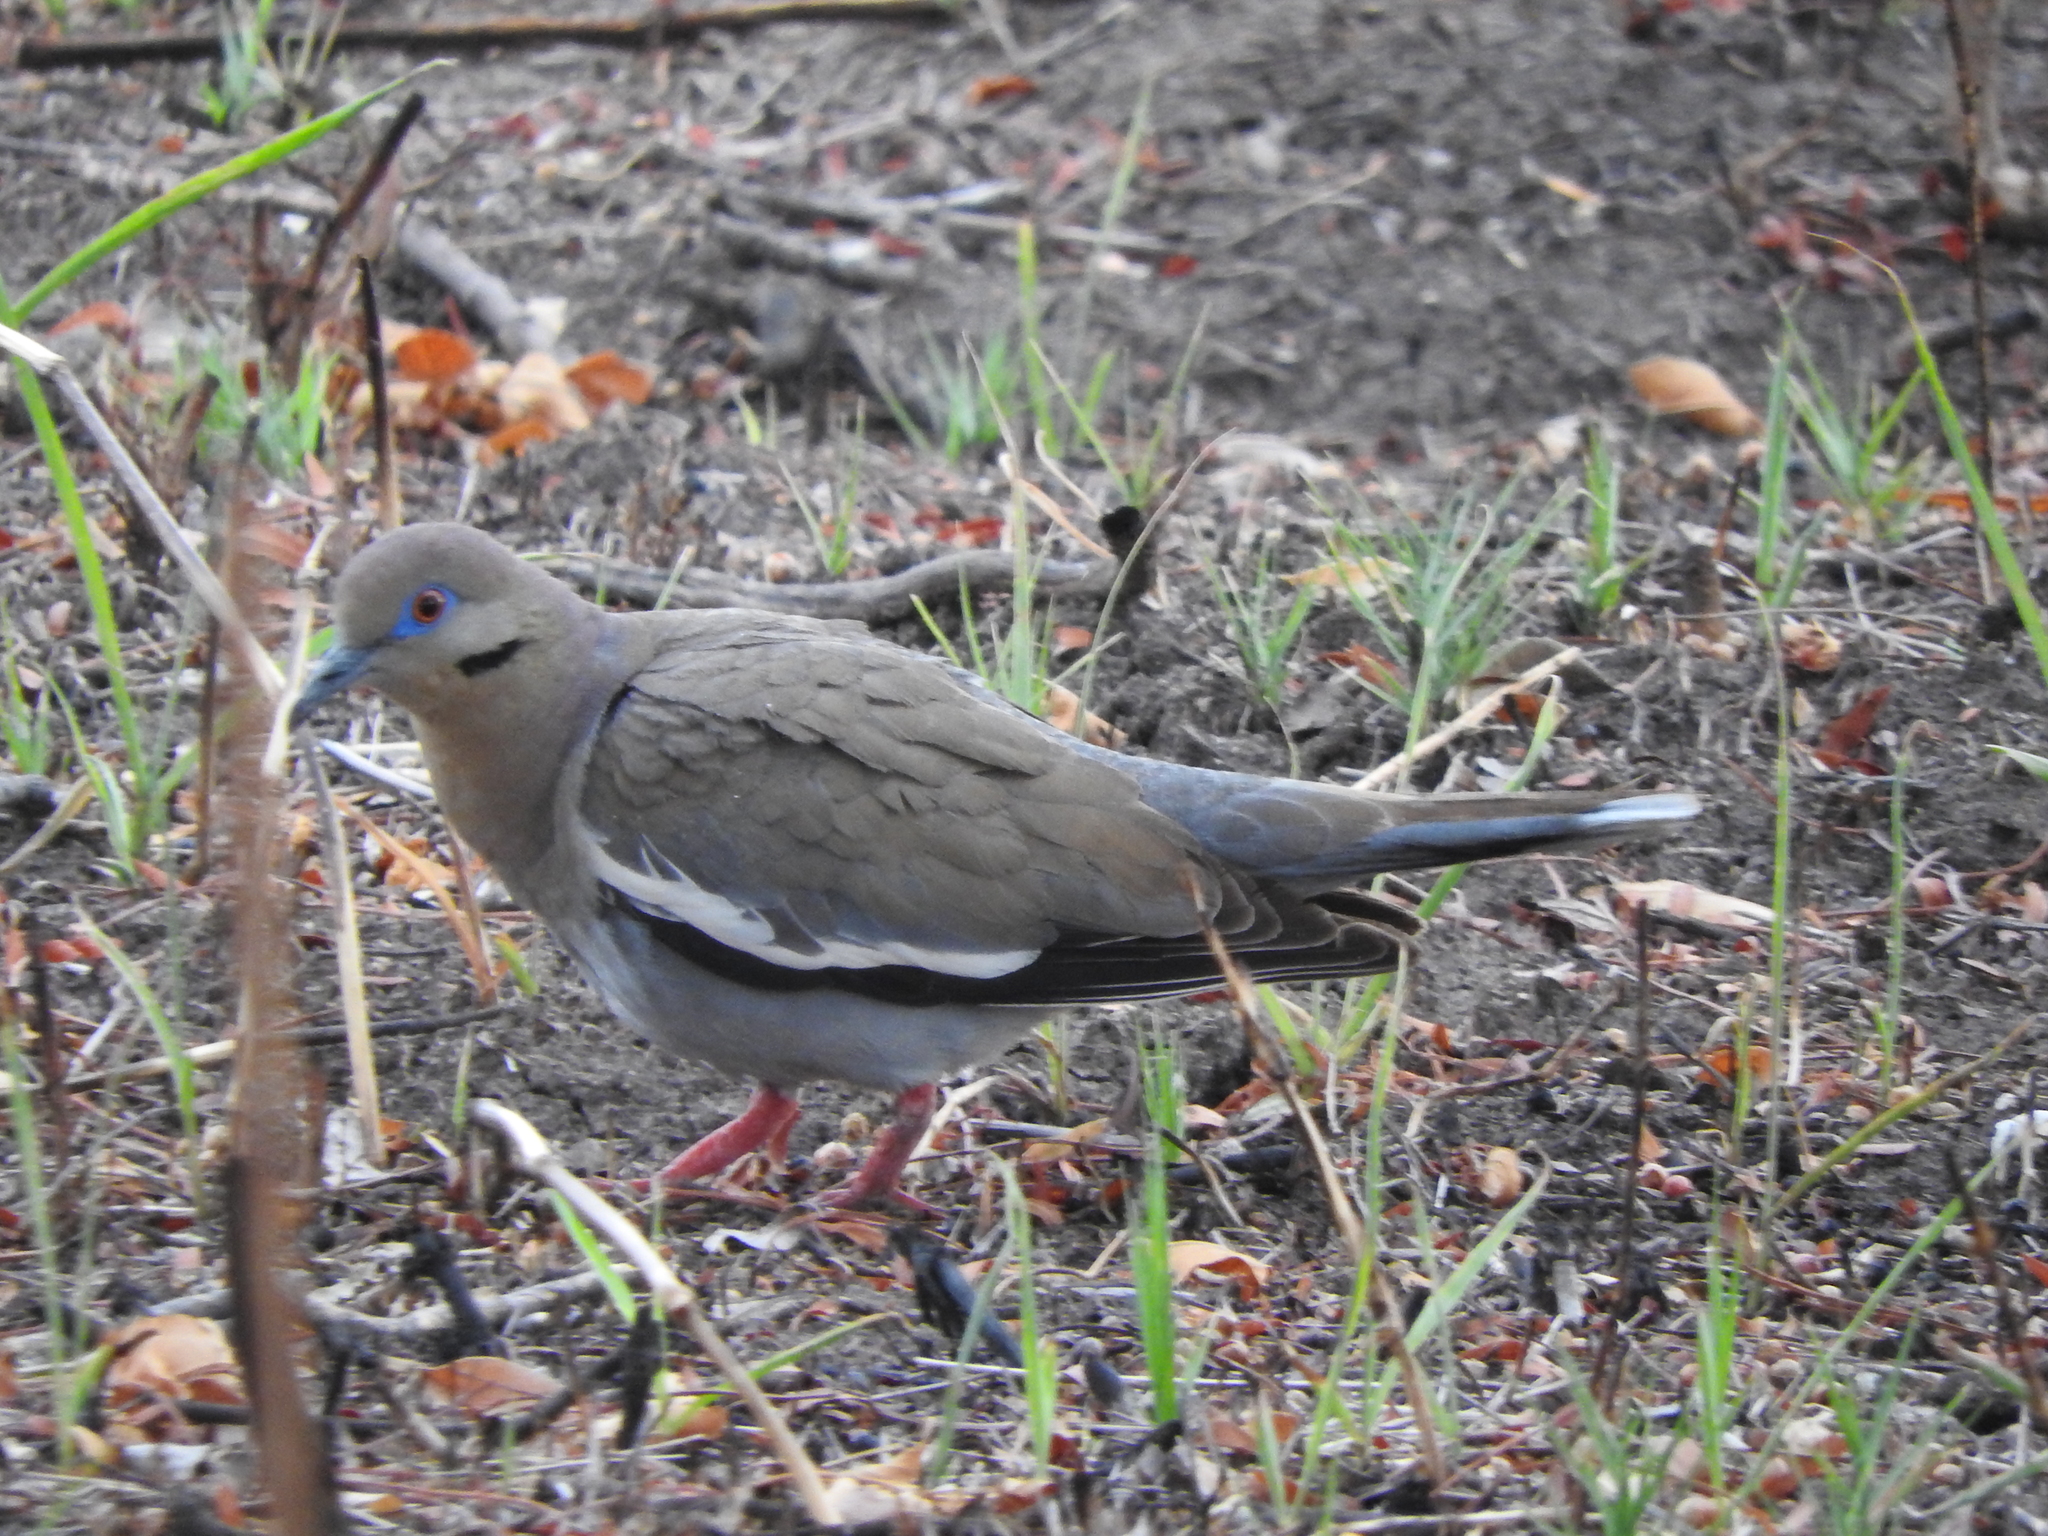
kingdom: Animalia
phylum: Chordata
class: Aves
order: Columbiformes
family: Columbidae
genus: Zenaida
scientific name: Zenaida asiatica
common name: White-winged dove
